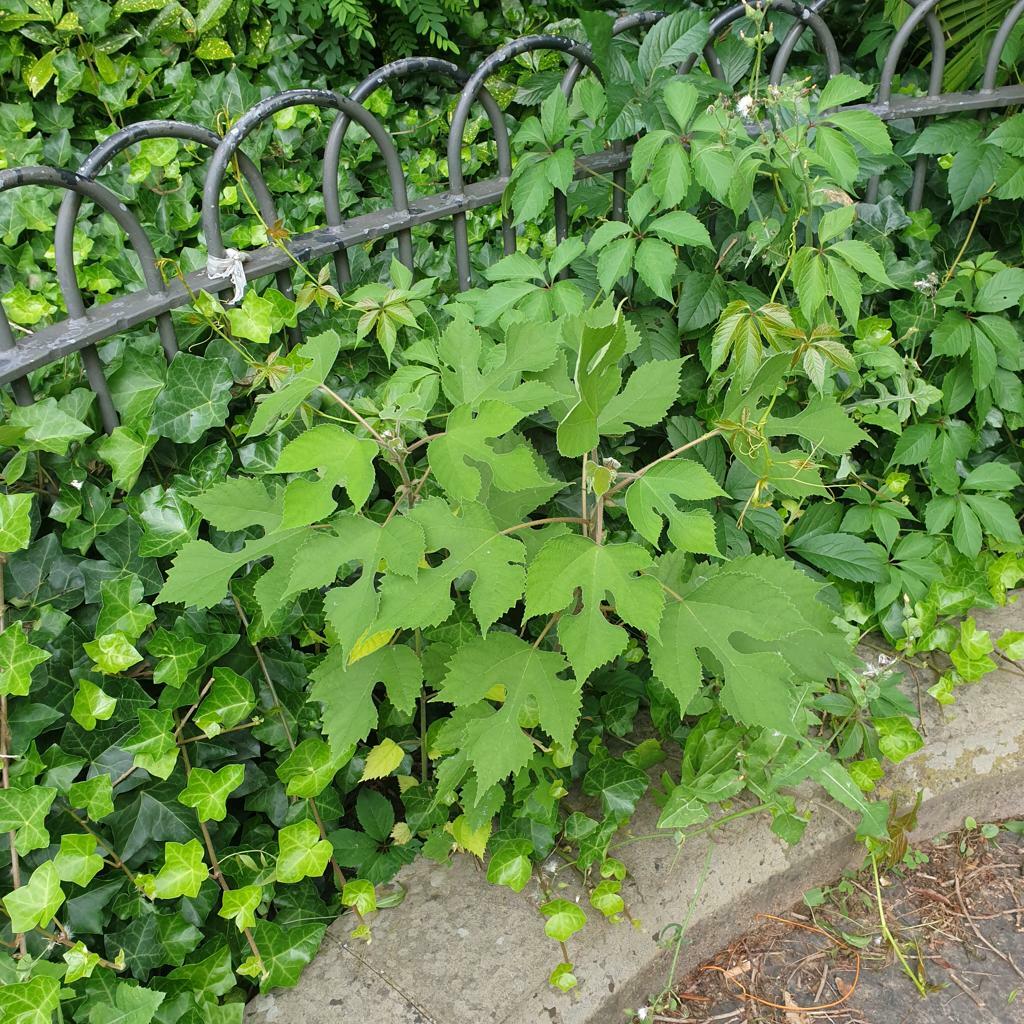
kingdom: Plantae
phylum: Tracheophyta
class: Magnoliopsida
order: Rosales
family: Moraceae
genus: Broussonetia
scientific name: Broussonetia papyrifera
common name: Paper mulberry
